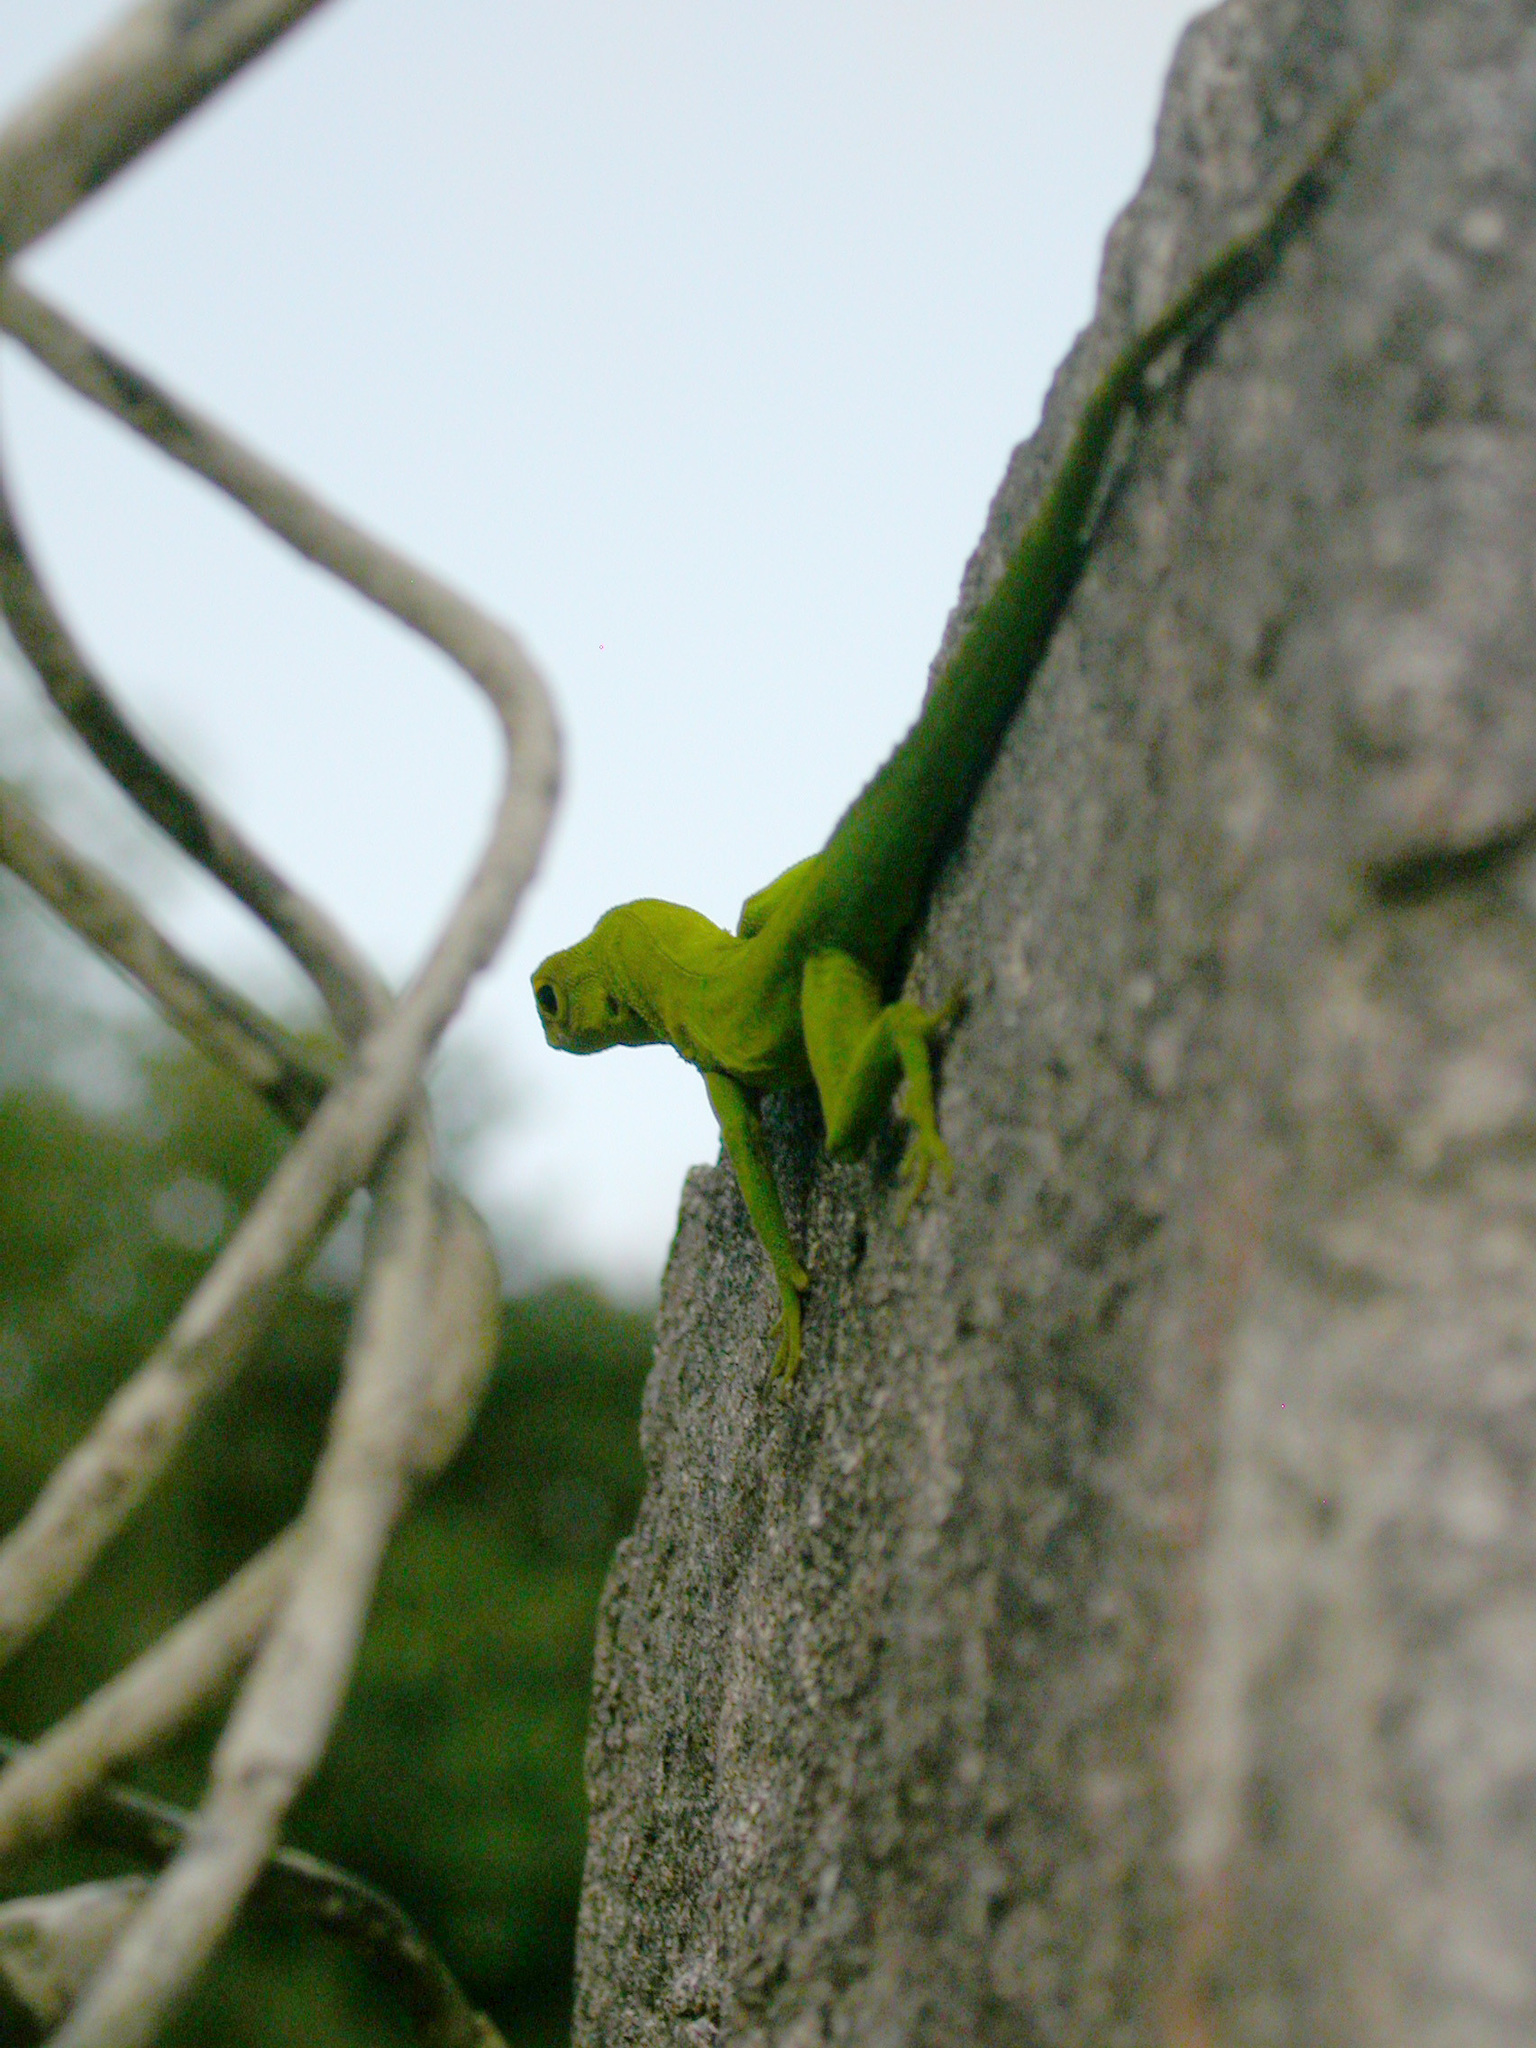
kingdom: Animalia
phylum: Chordata
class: Squamata
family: Dactyloidae
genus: Anolis
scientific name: Anolis marmoratus
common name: Guadeloupe anole
